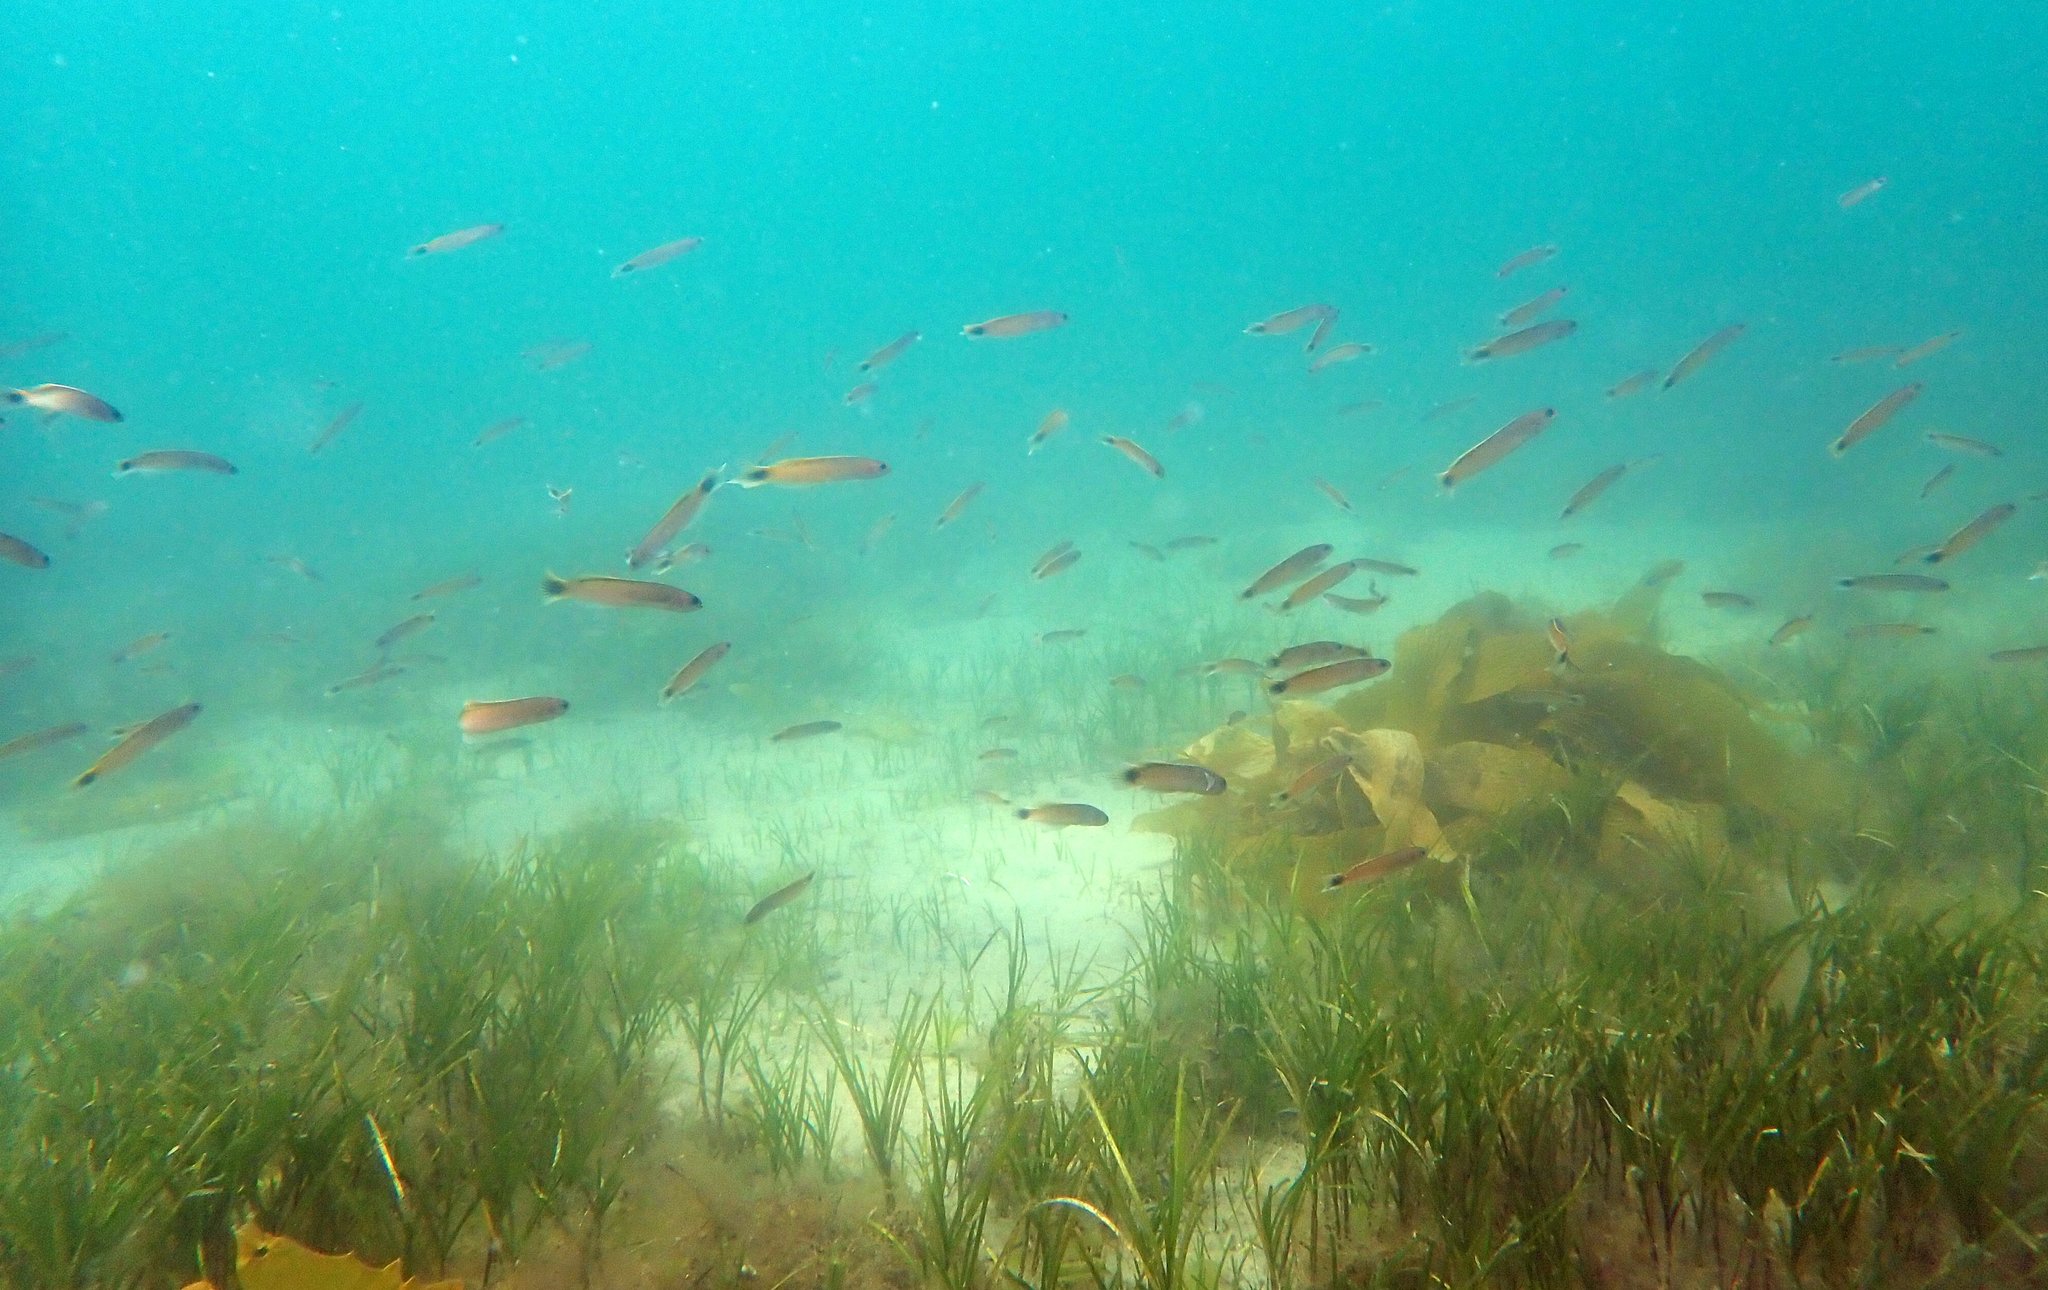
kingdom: Animalia
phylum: Chordata
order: Perciformes
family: Plesiopidae
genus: Trachinops
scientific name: Trachinops caudimaculatus
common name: Blotched-tailed trachinops
